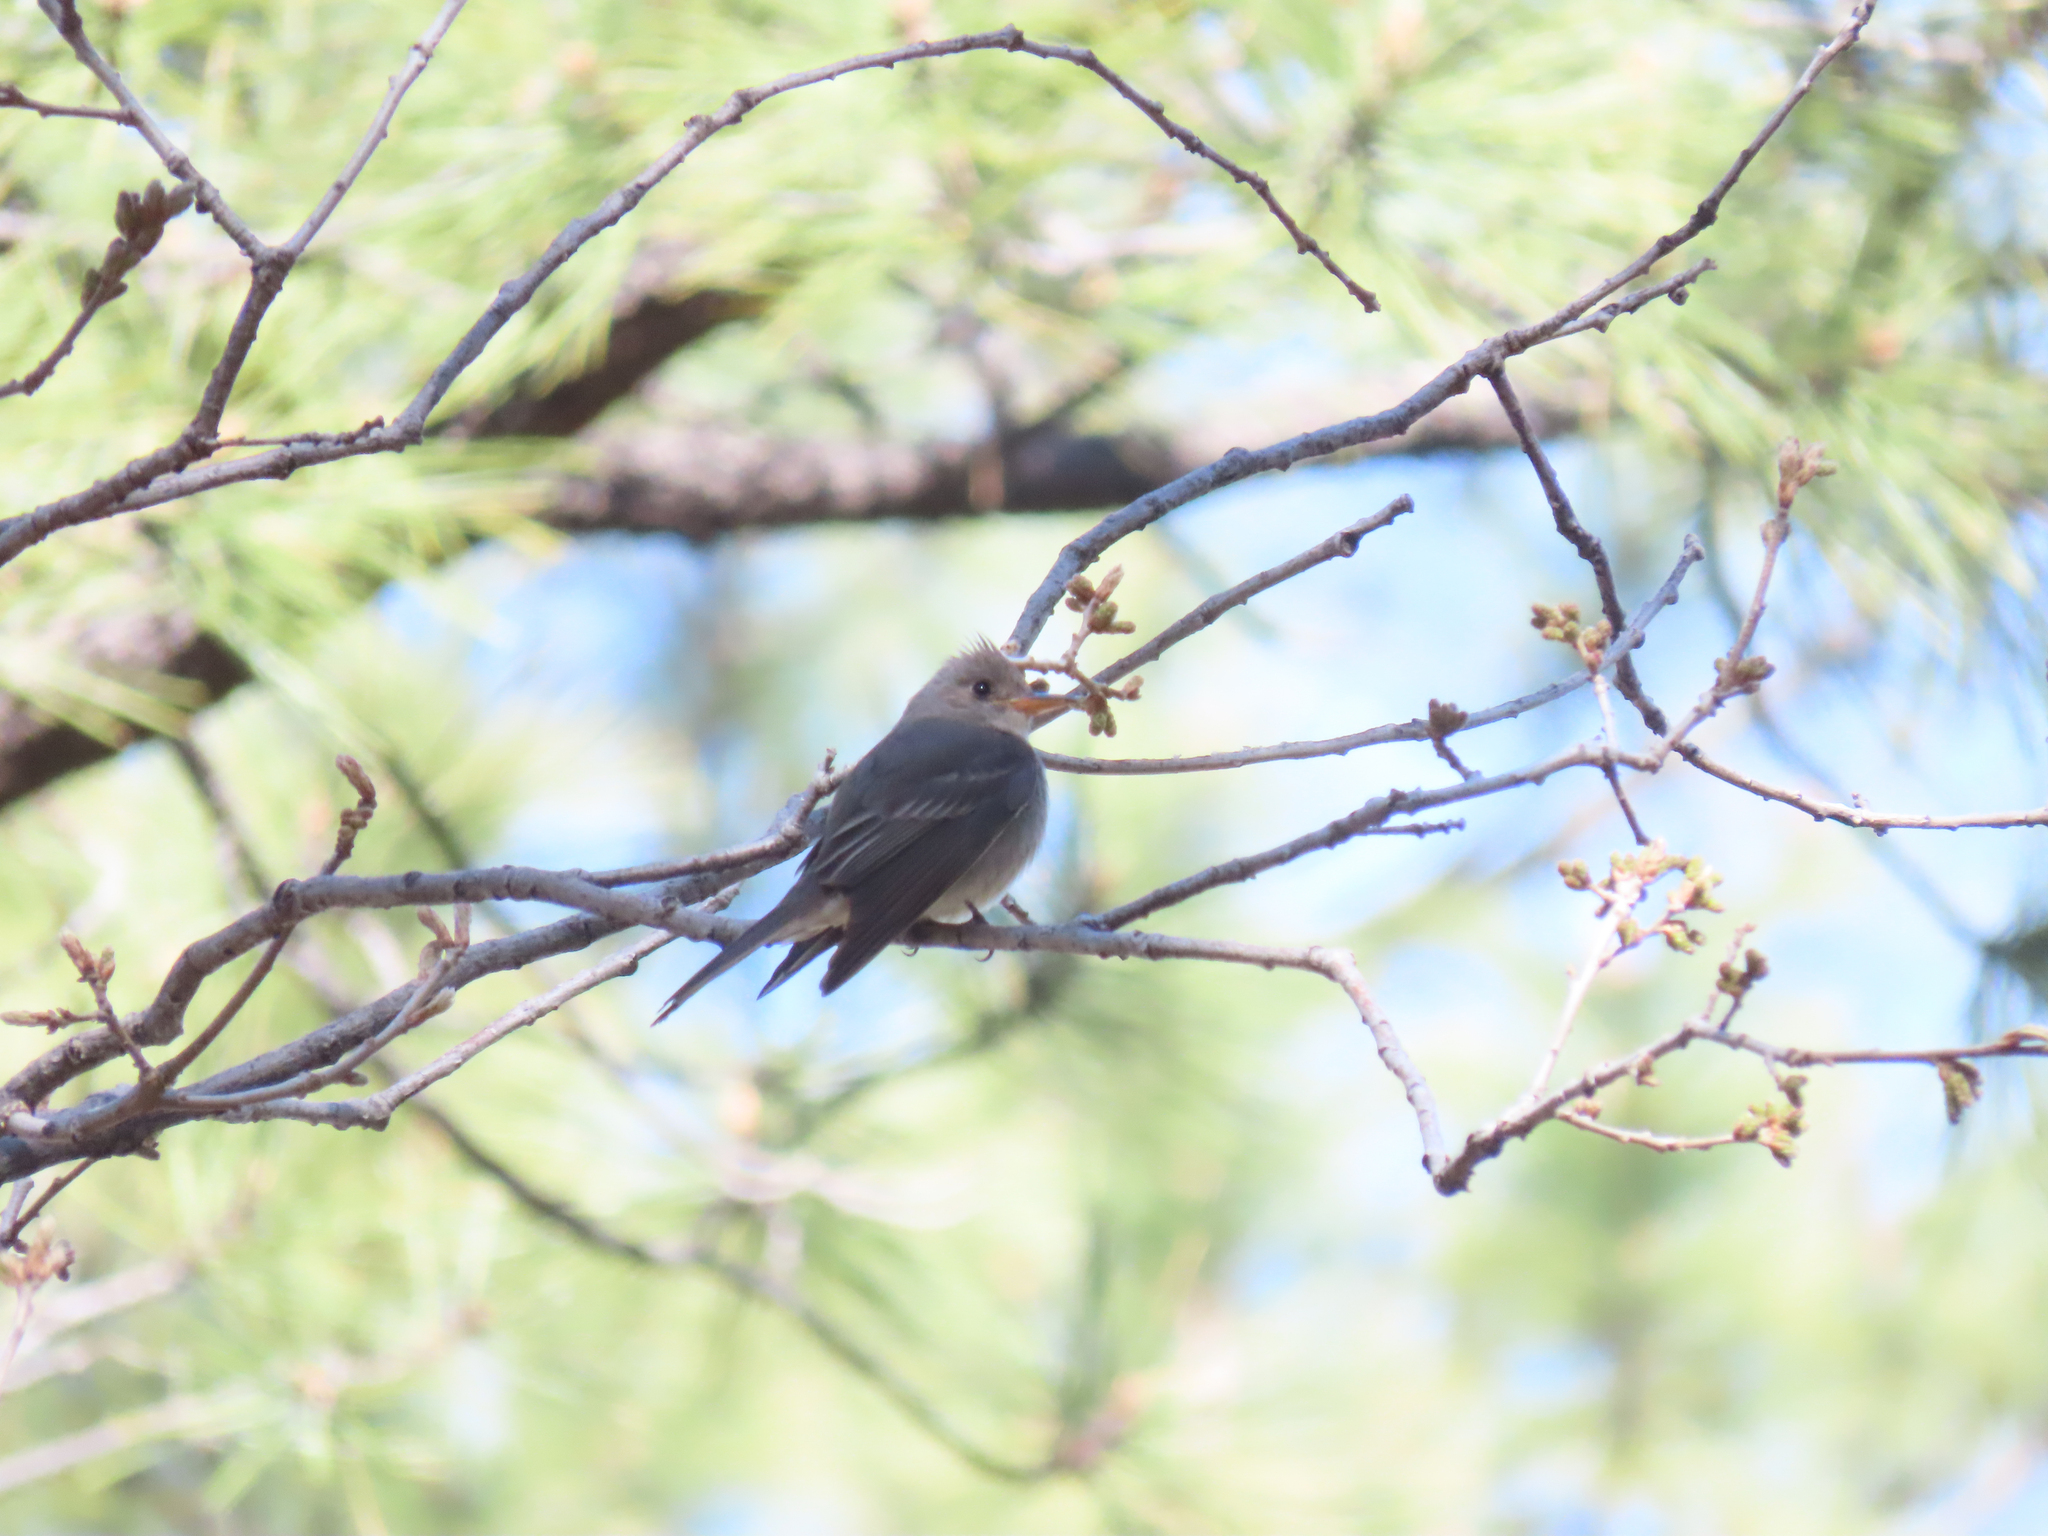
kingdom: Animalia
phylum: Chordata
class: Aves
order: Passeriformes
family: Tyrannidae
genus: Contopus
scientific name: Contopus pertinax
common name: Greater pewee
